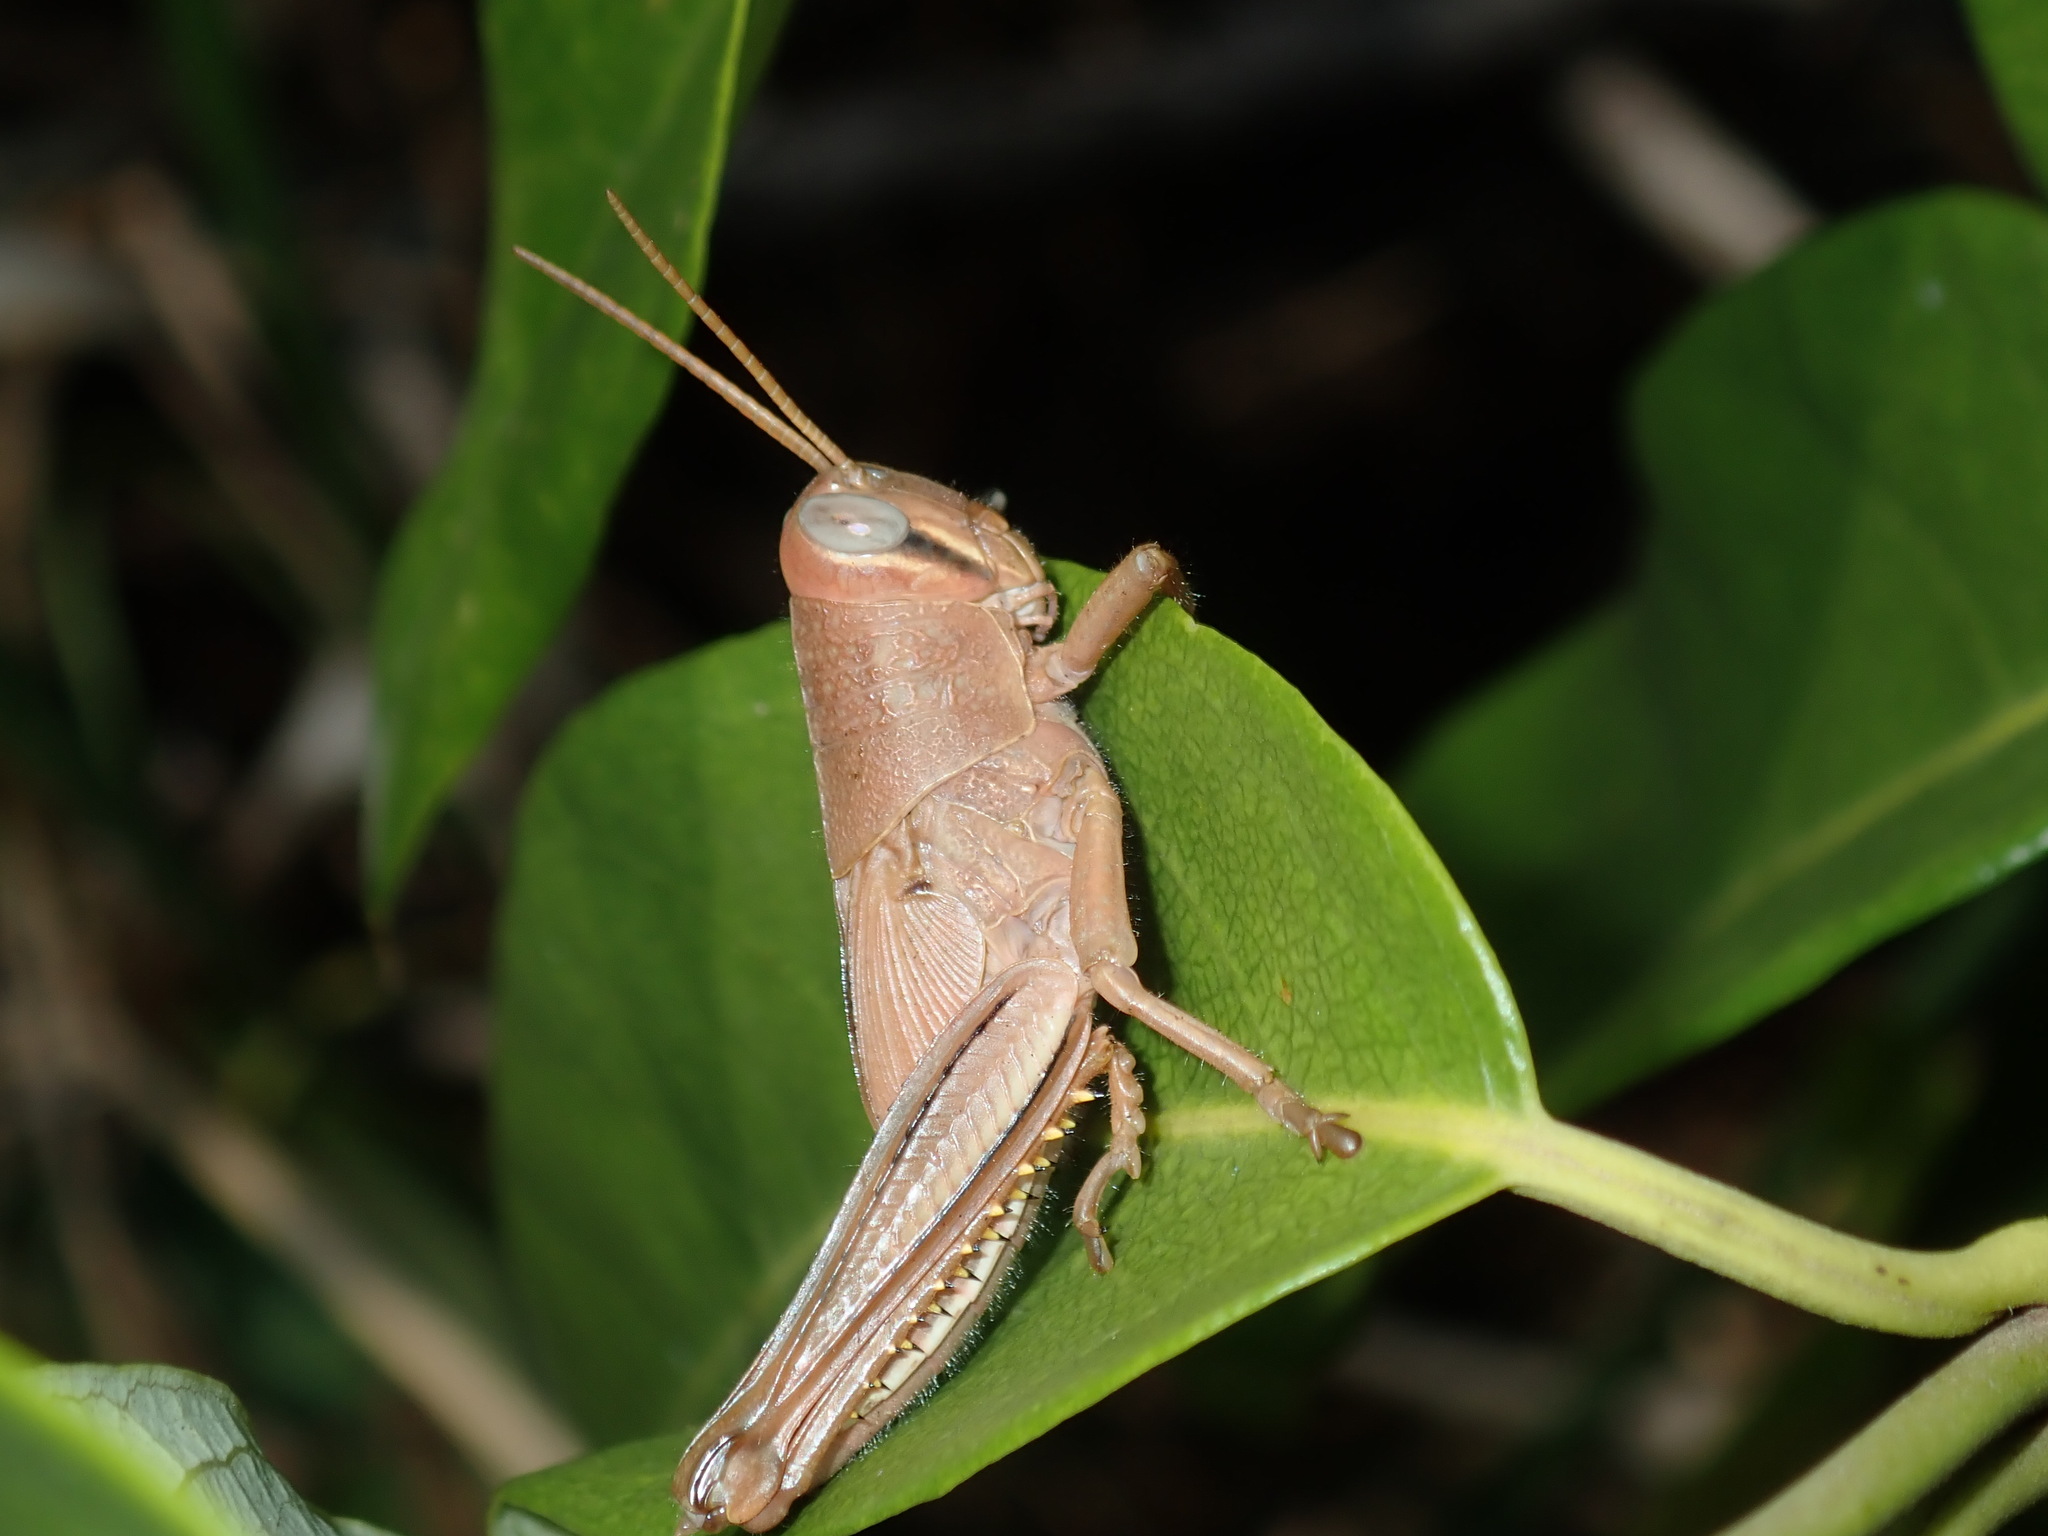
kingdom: Animalia
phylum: Arthropoda
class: Insecta
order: Orthoptera
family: Acrididae
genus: Valanga
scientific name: Valanga irregularis
